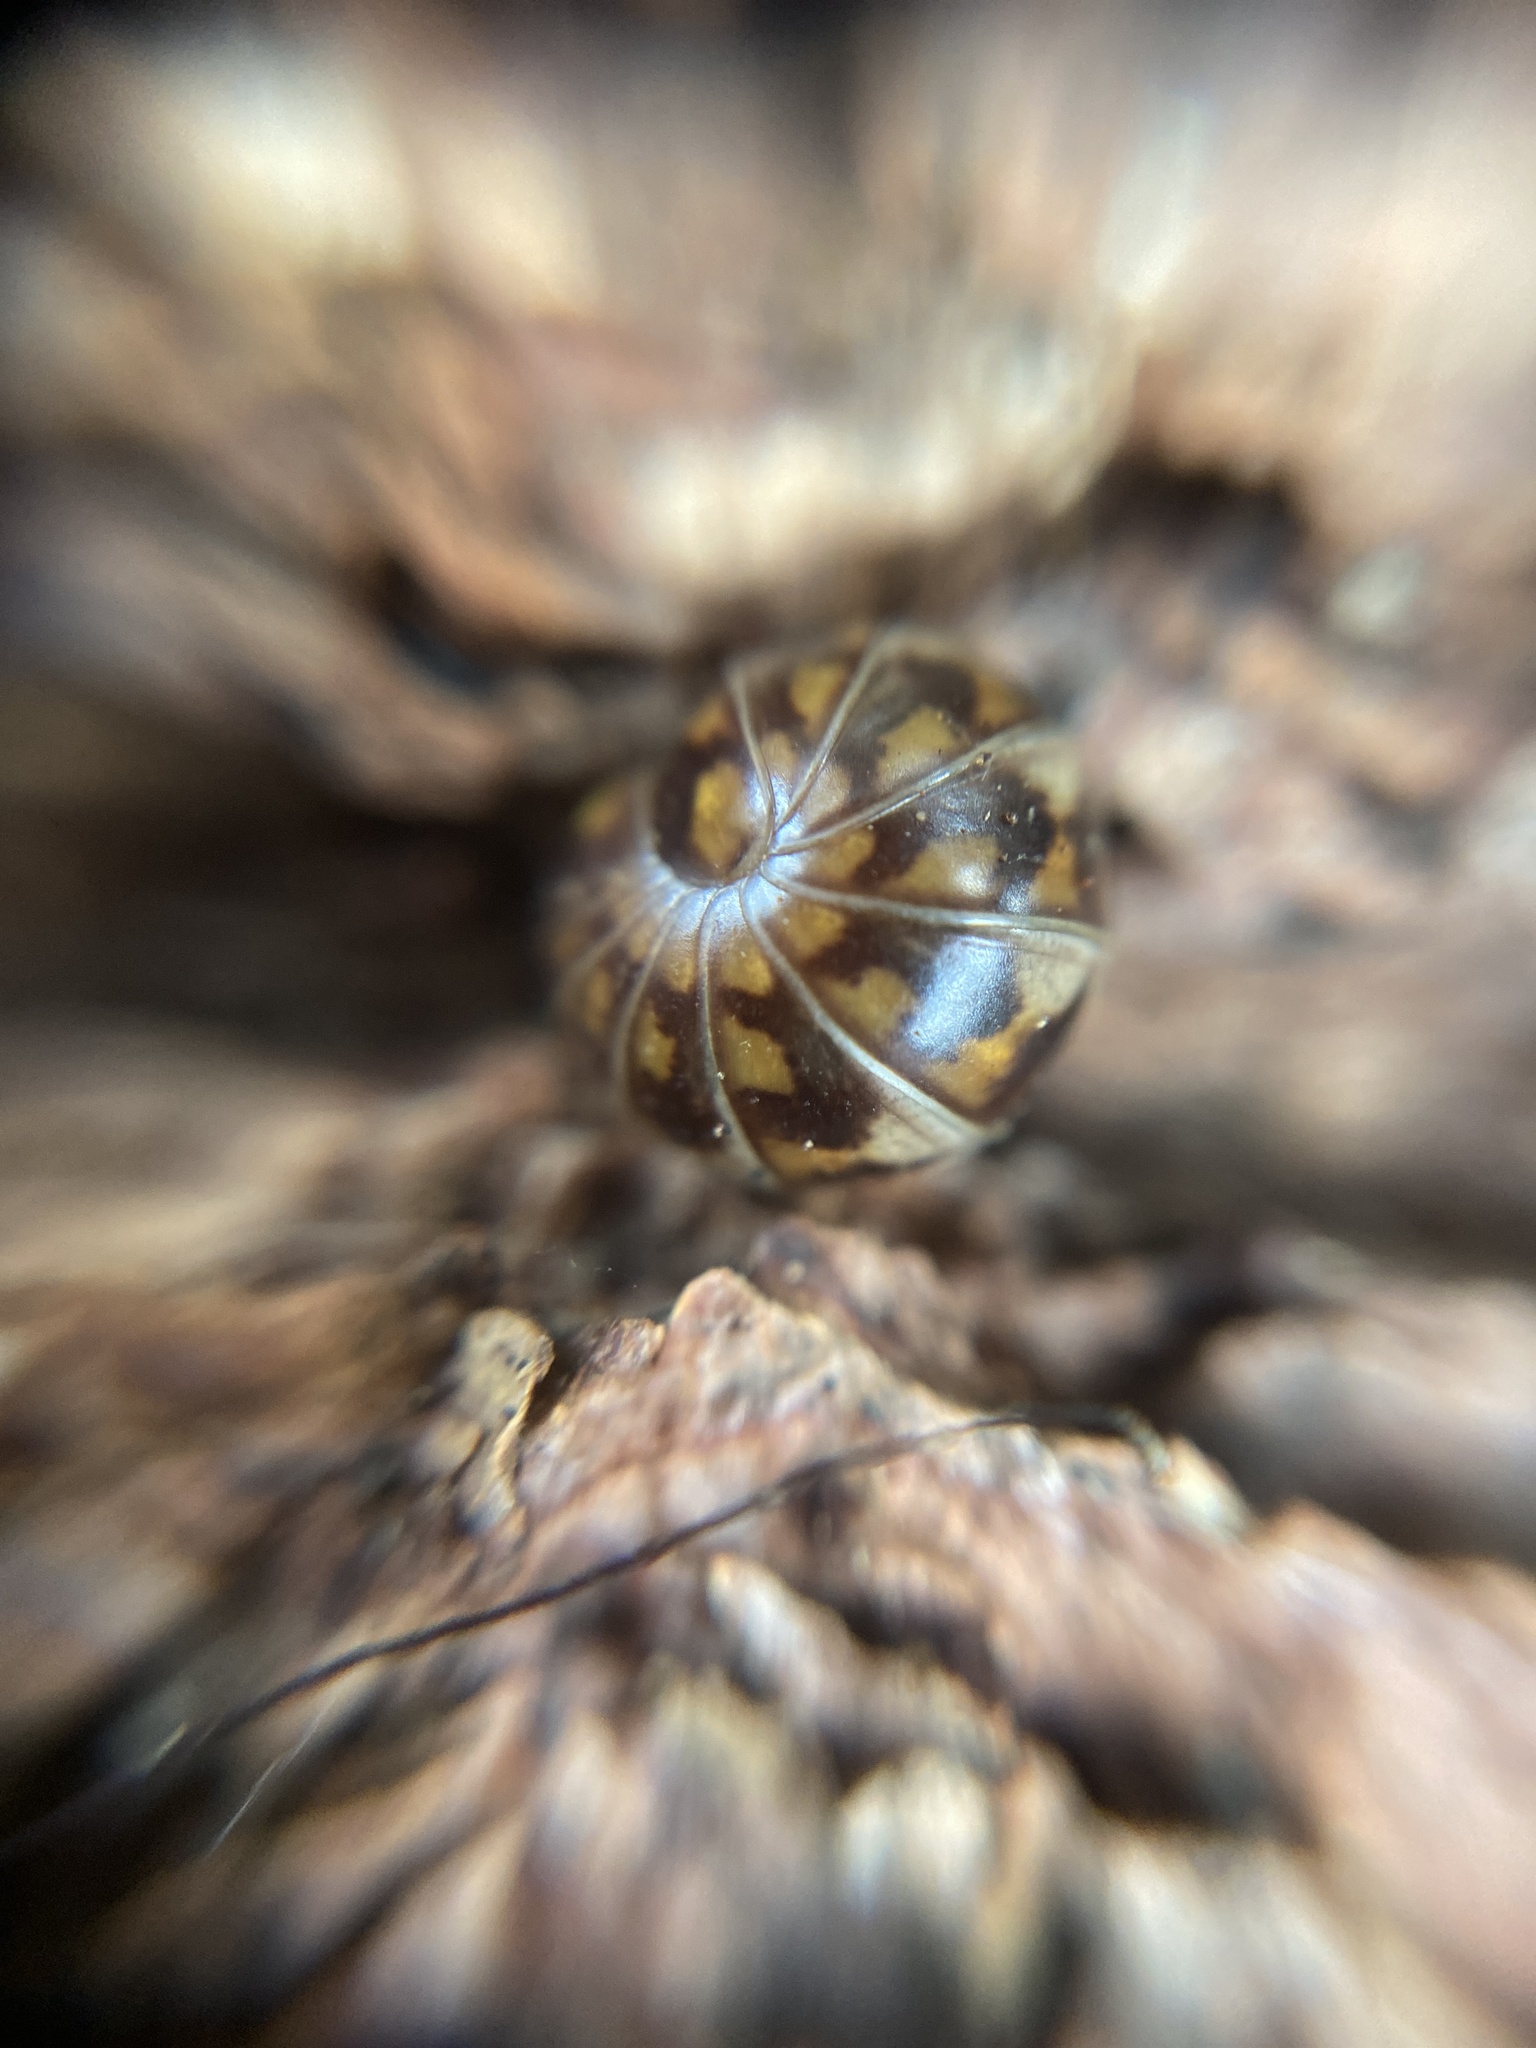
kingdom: Animalia
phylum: Arthropoda
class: Diplopoda
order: Glomerida
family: Glomeridae
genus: Glomeris
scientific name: Glomeris hexasticha
